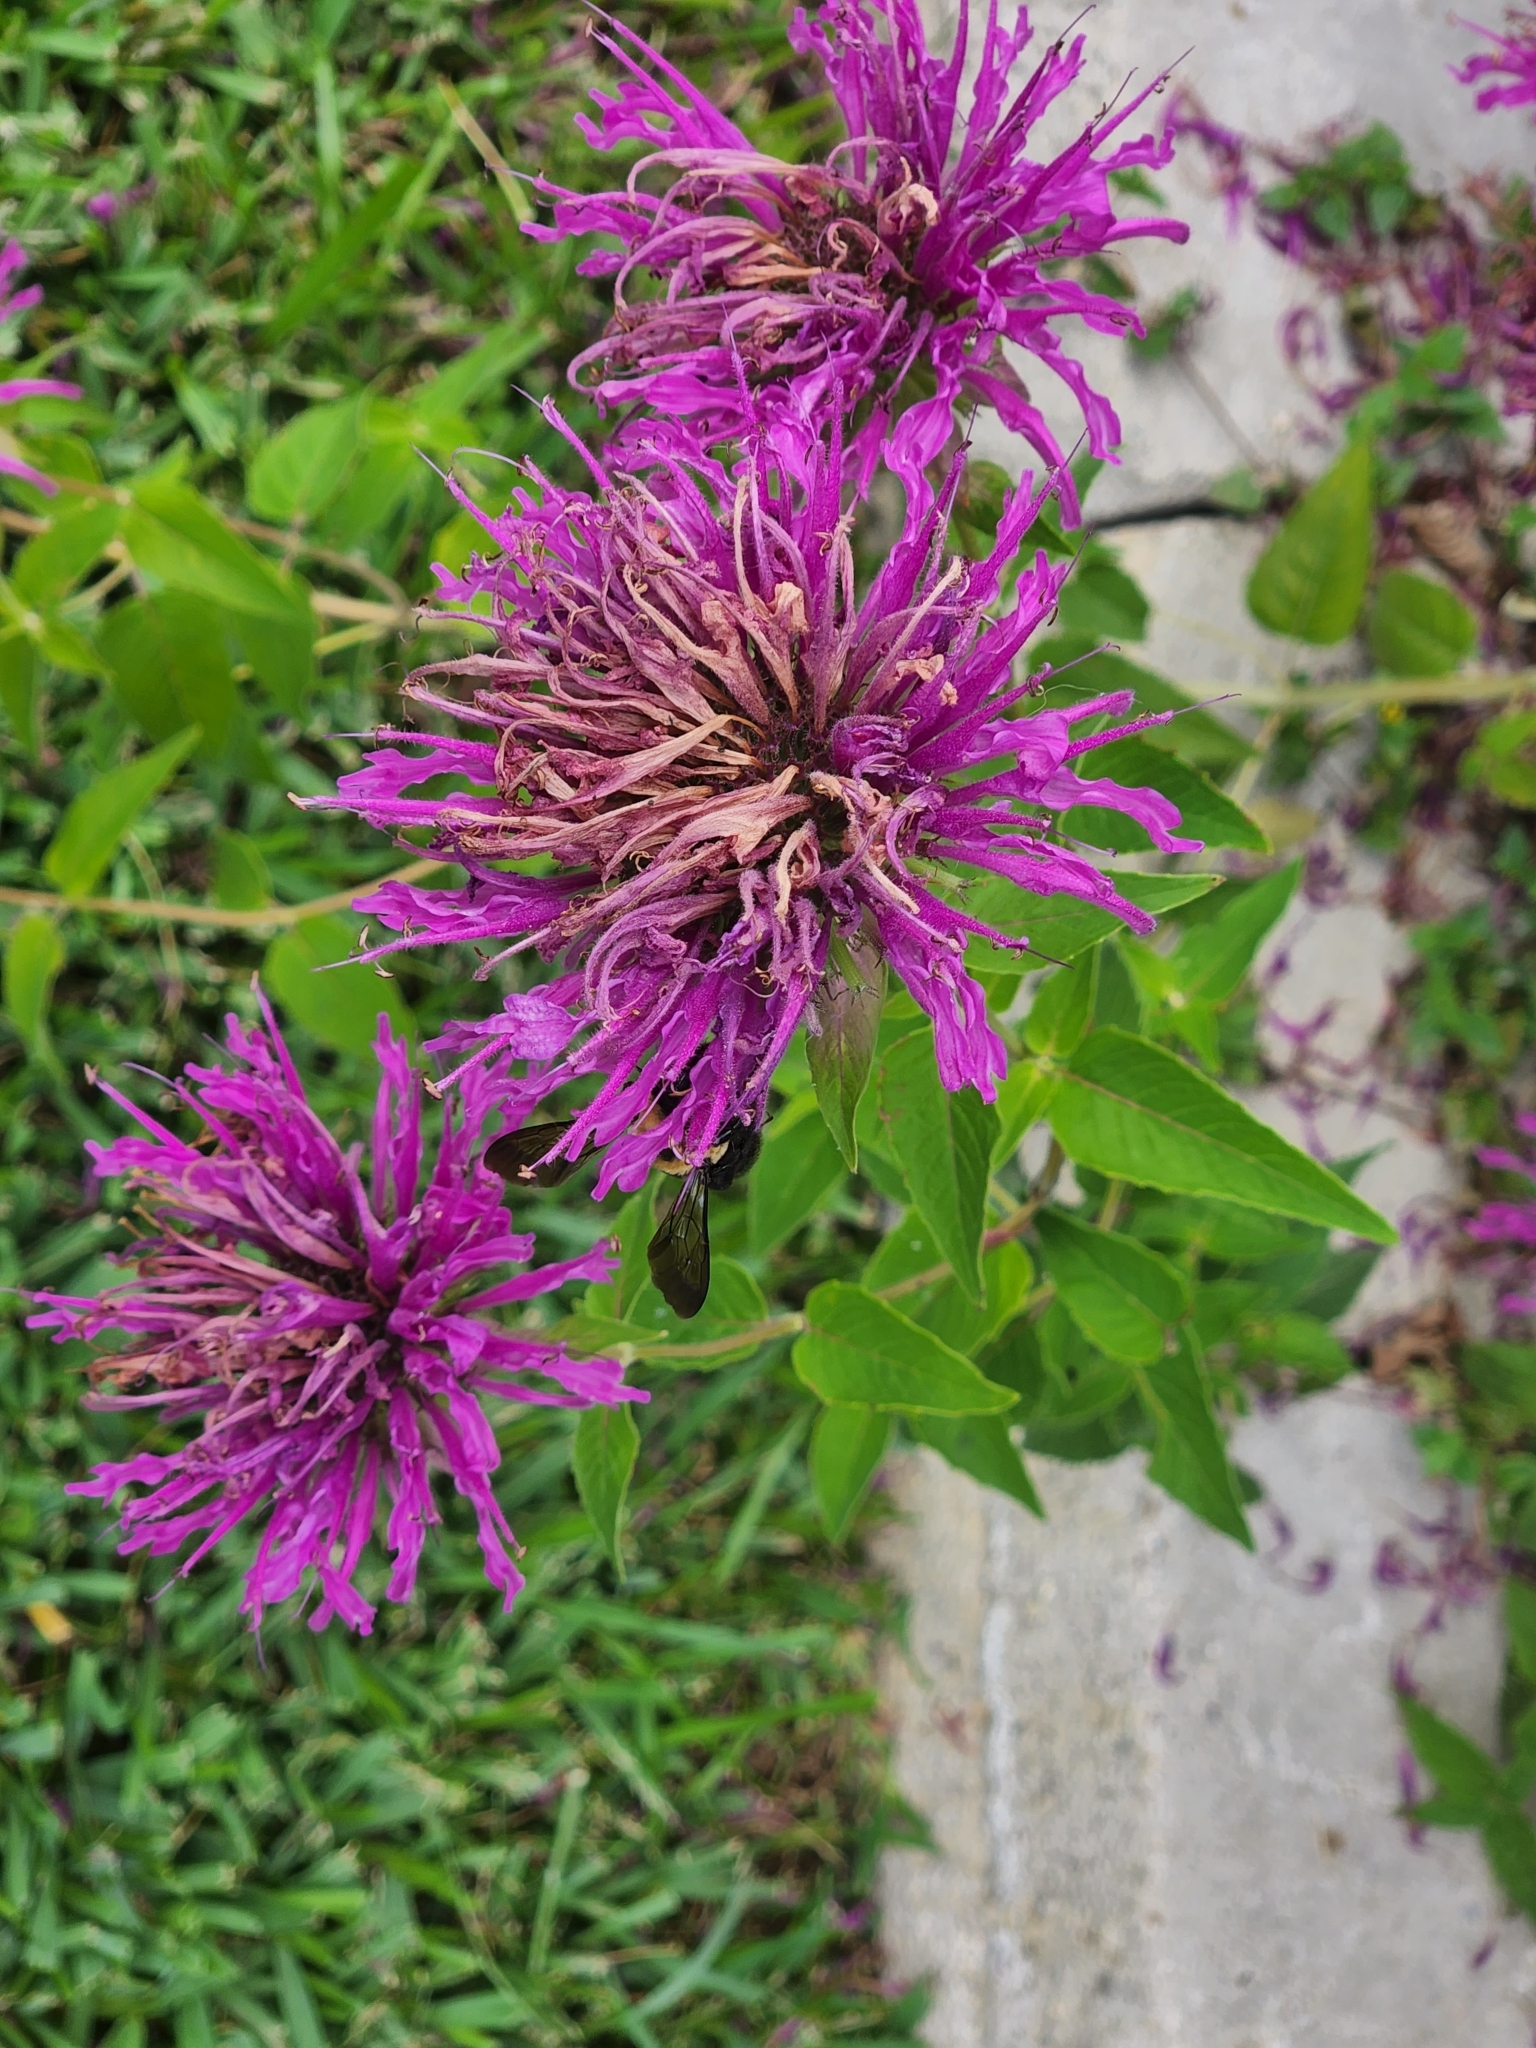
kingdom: Plantae
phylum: Tracheophyta
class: Magnoliopsida
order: Lamiales
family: Lamiaceae
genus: Monarda
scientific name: Monarda fistulosa
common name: Purple beebalm
